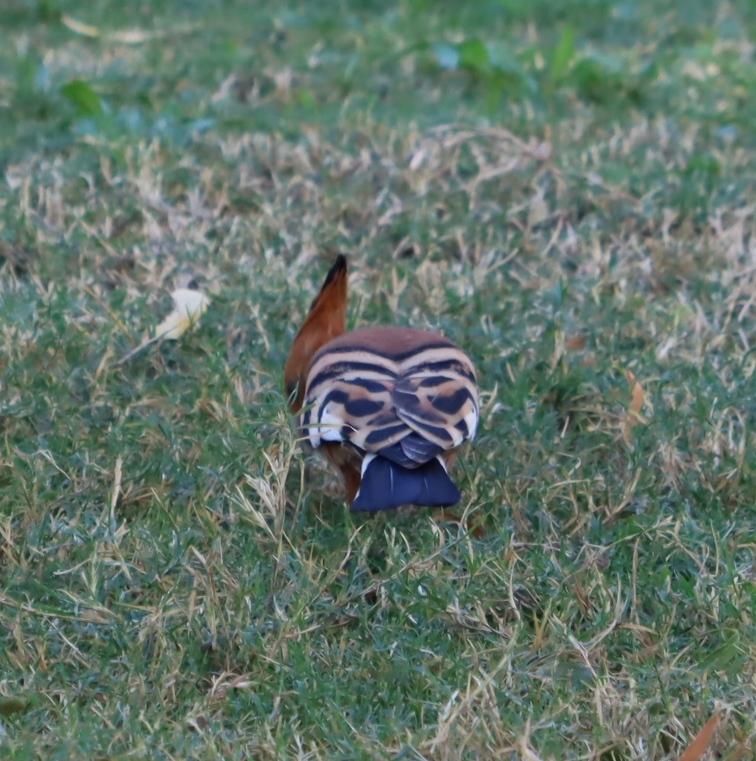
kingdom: Animalia
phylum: Chordata
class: Aves
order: Bucerotiformes
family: Upupidae
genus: Upupa
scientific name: Upupa africana
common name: African hoopoe
